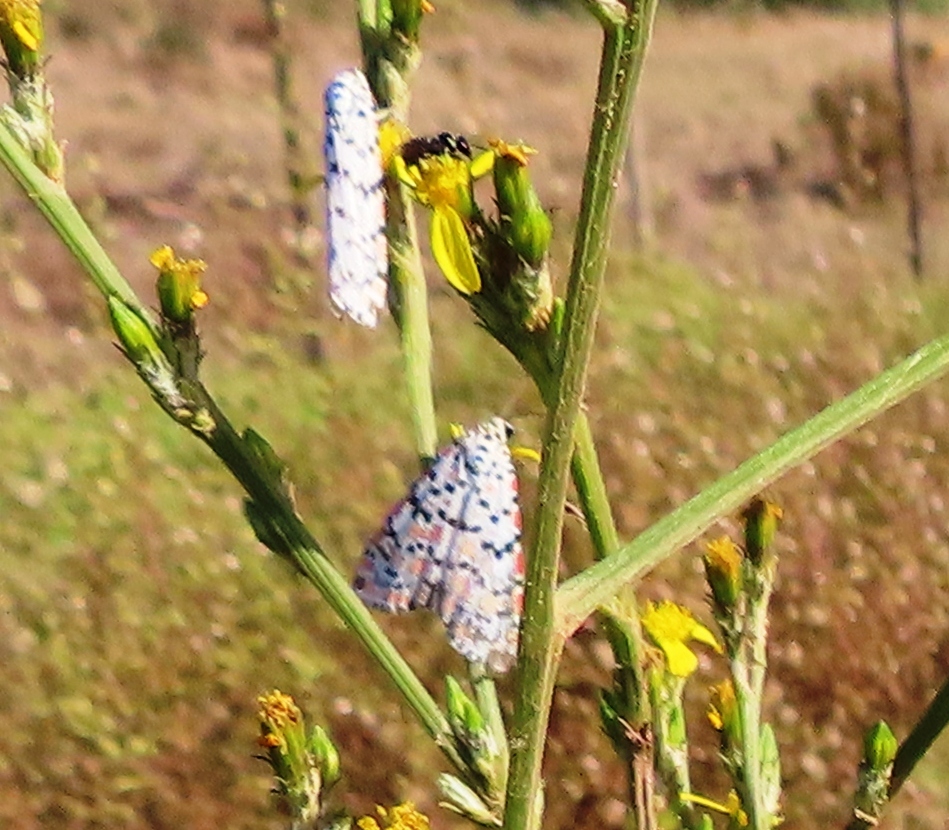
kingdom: Animalia
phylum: Arthropoda
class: Insecta
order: Lepidoptera
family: Erebidae
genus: Utetheisa
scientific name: Utetheisa pulchella
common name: Crimson speckled
